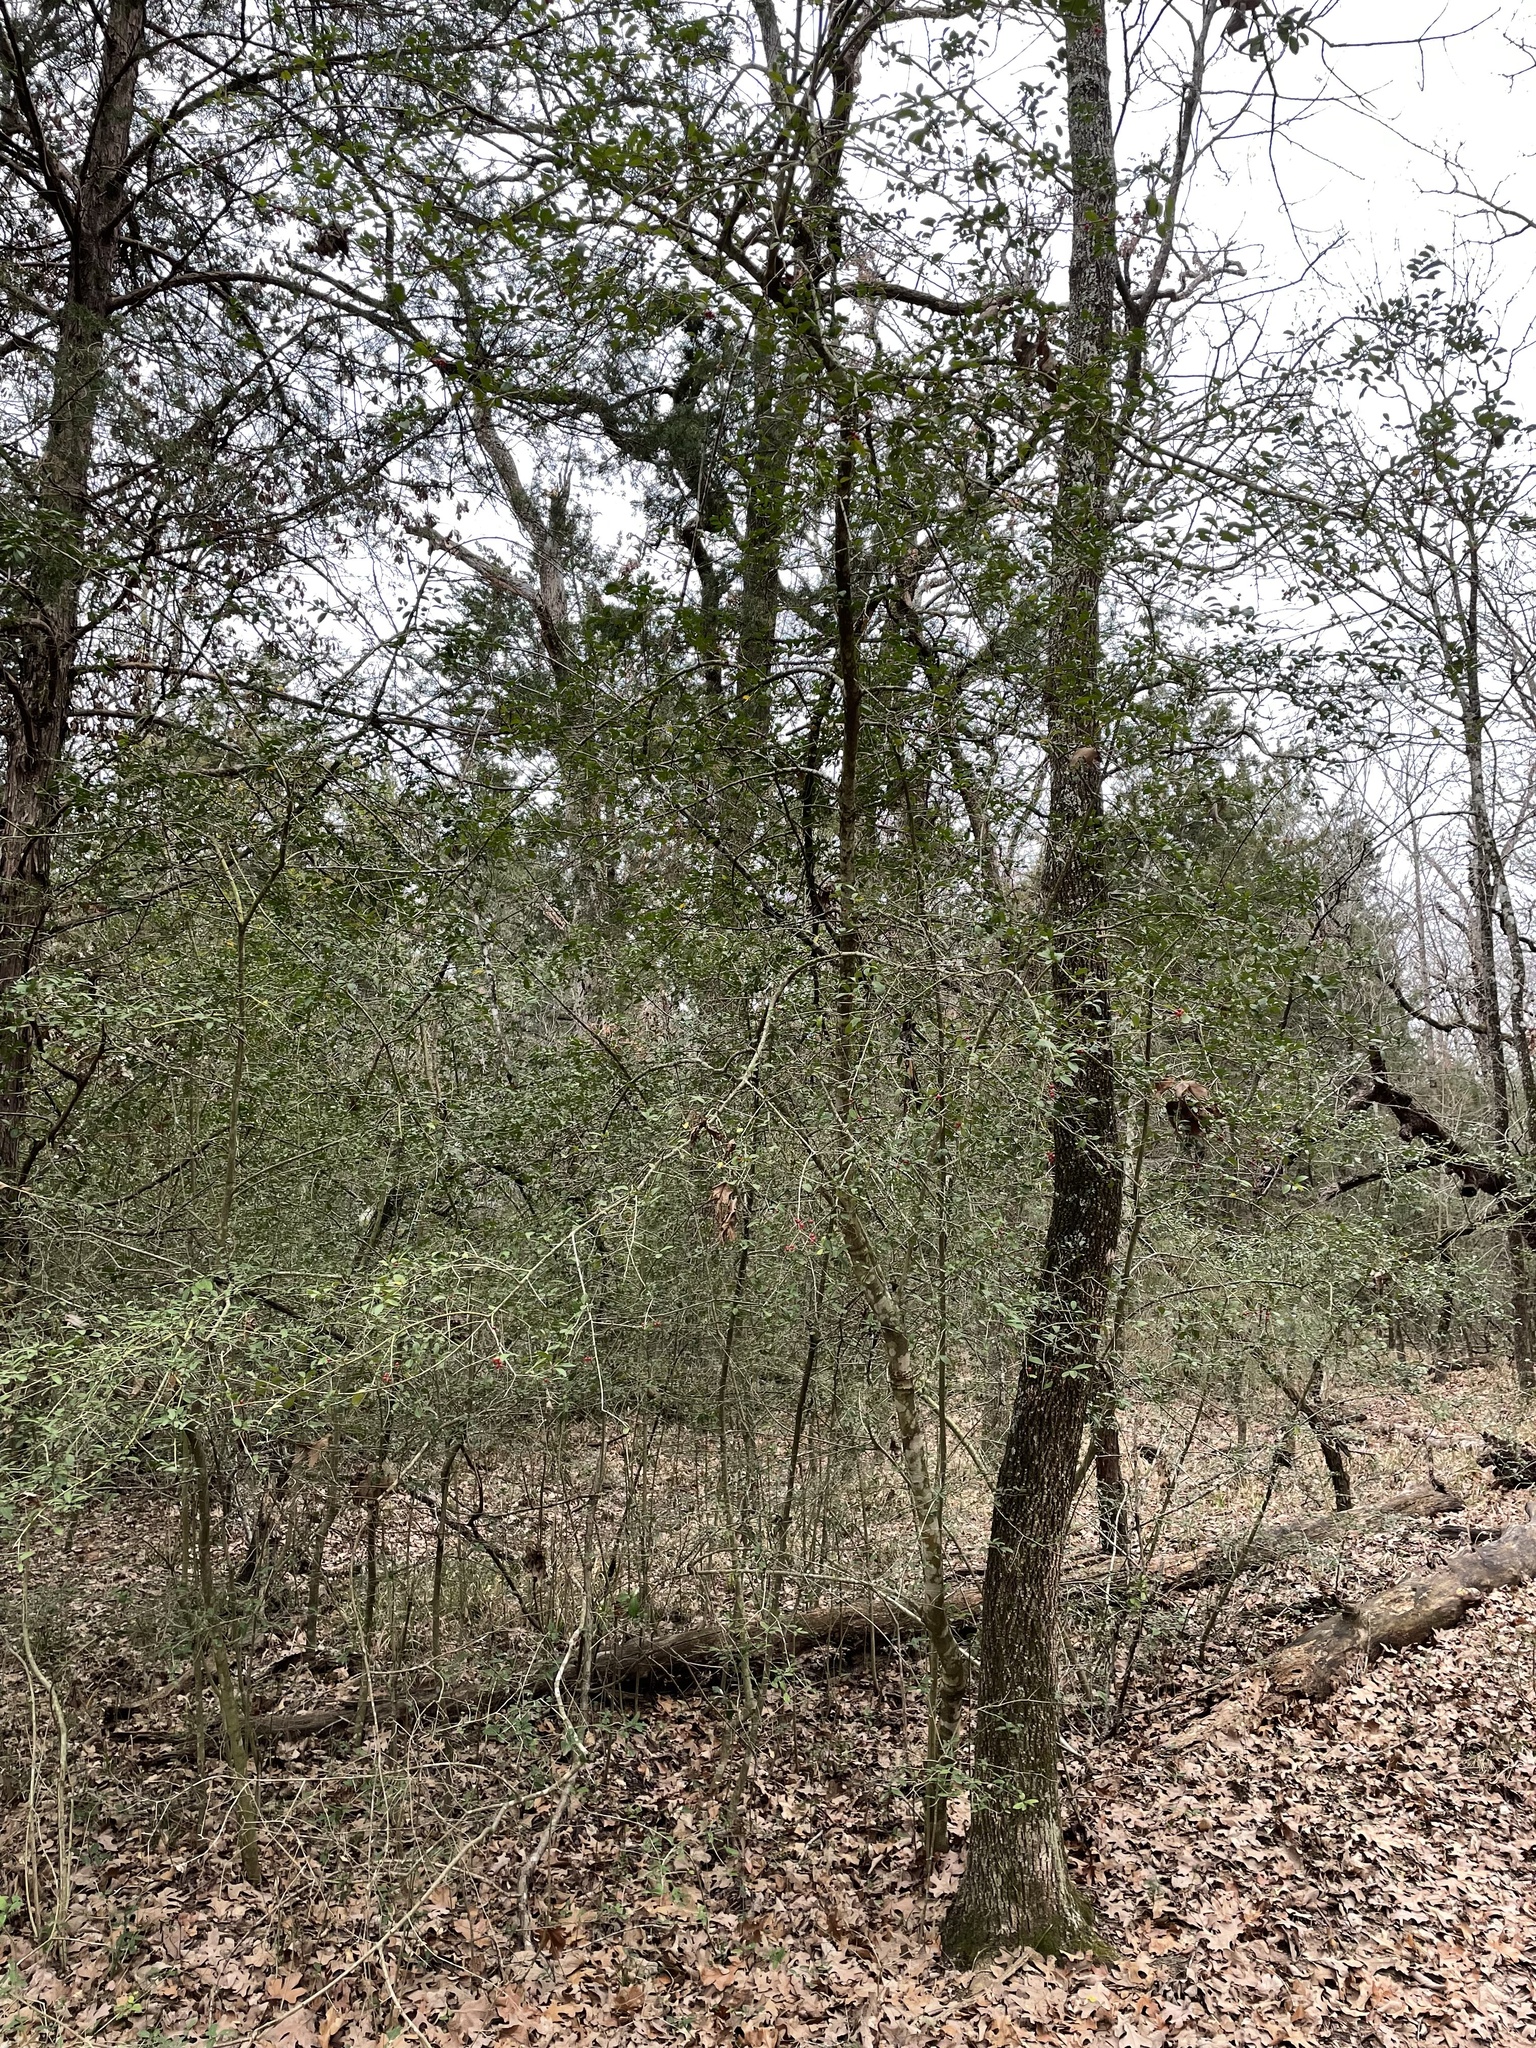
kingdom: Plantae
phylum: Tracheophyta
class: Magnoliopsida
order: Aquifoliales
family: Aquifoliaceae
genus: Ilex
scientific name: Ilex vomitoria
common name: Yaupon holly
